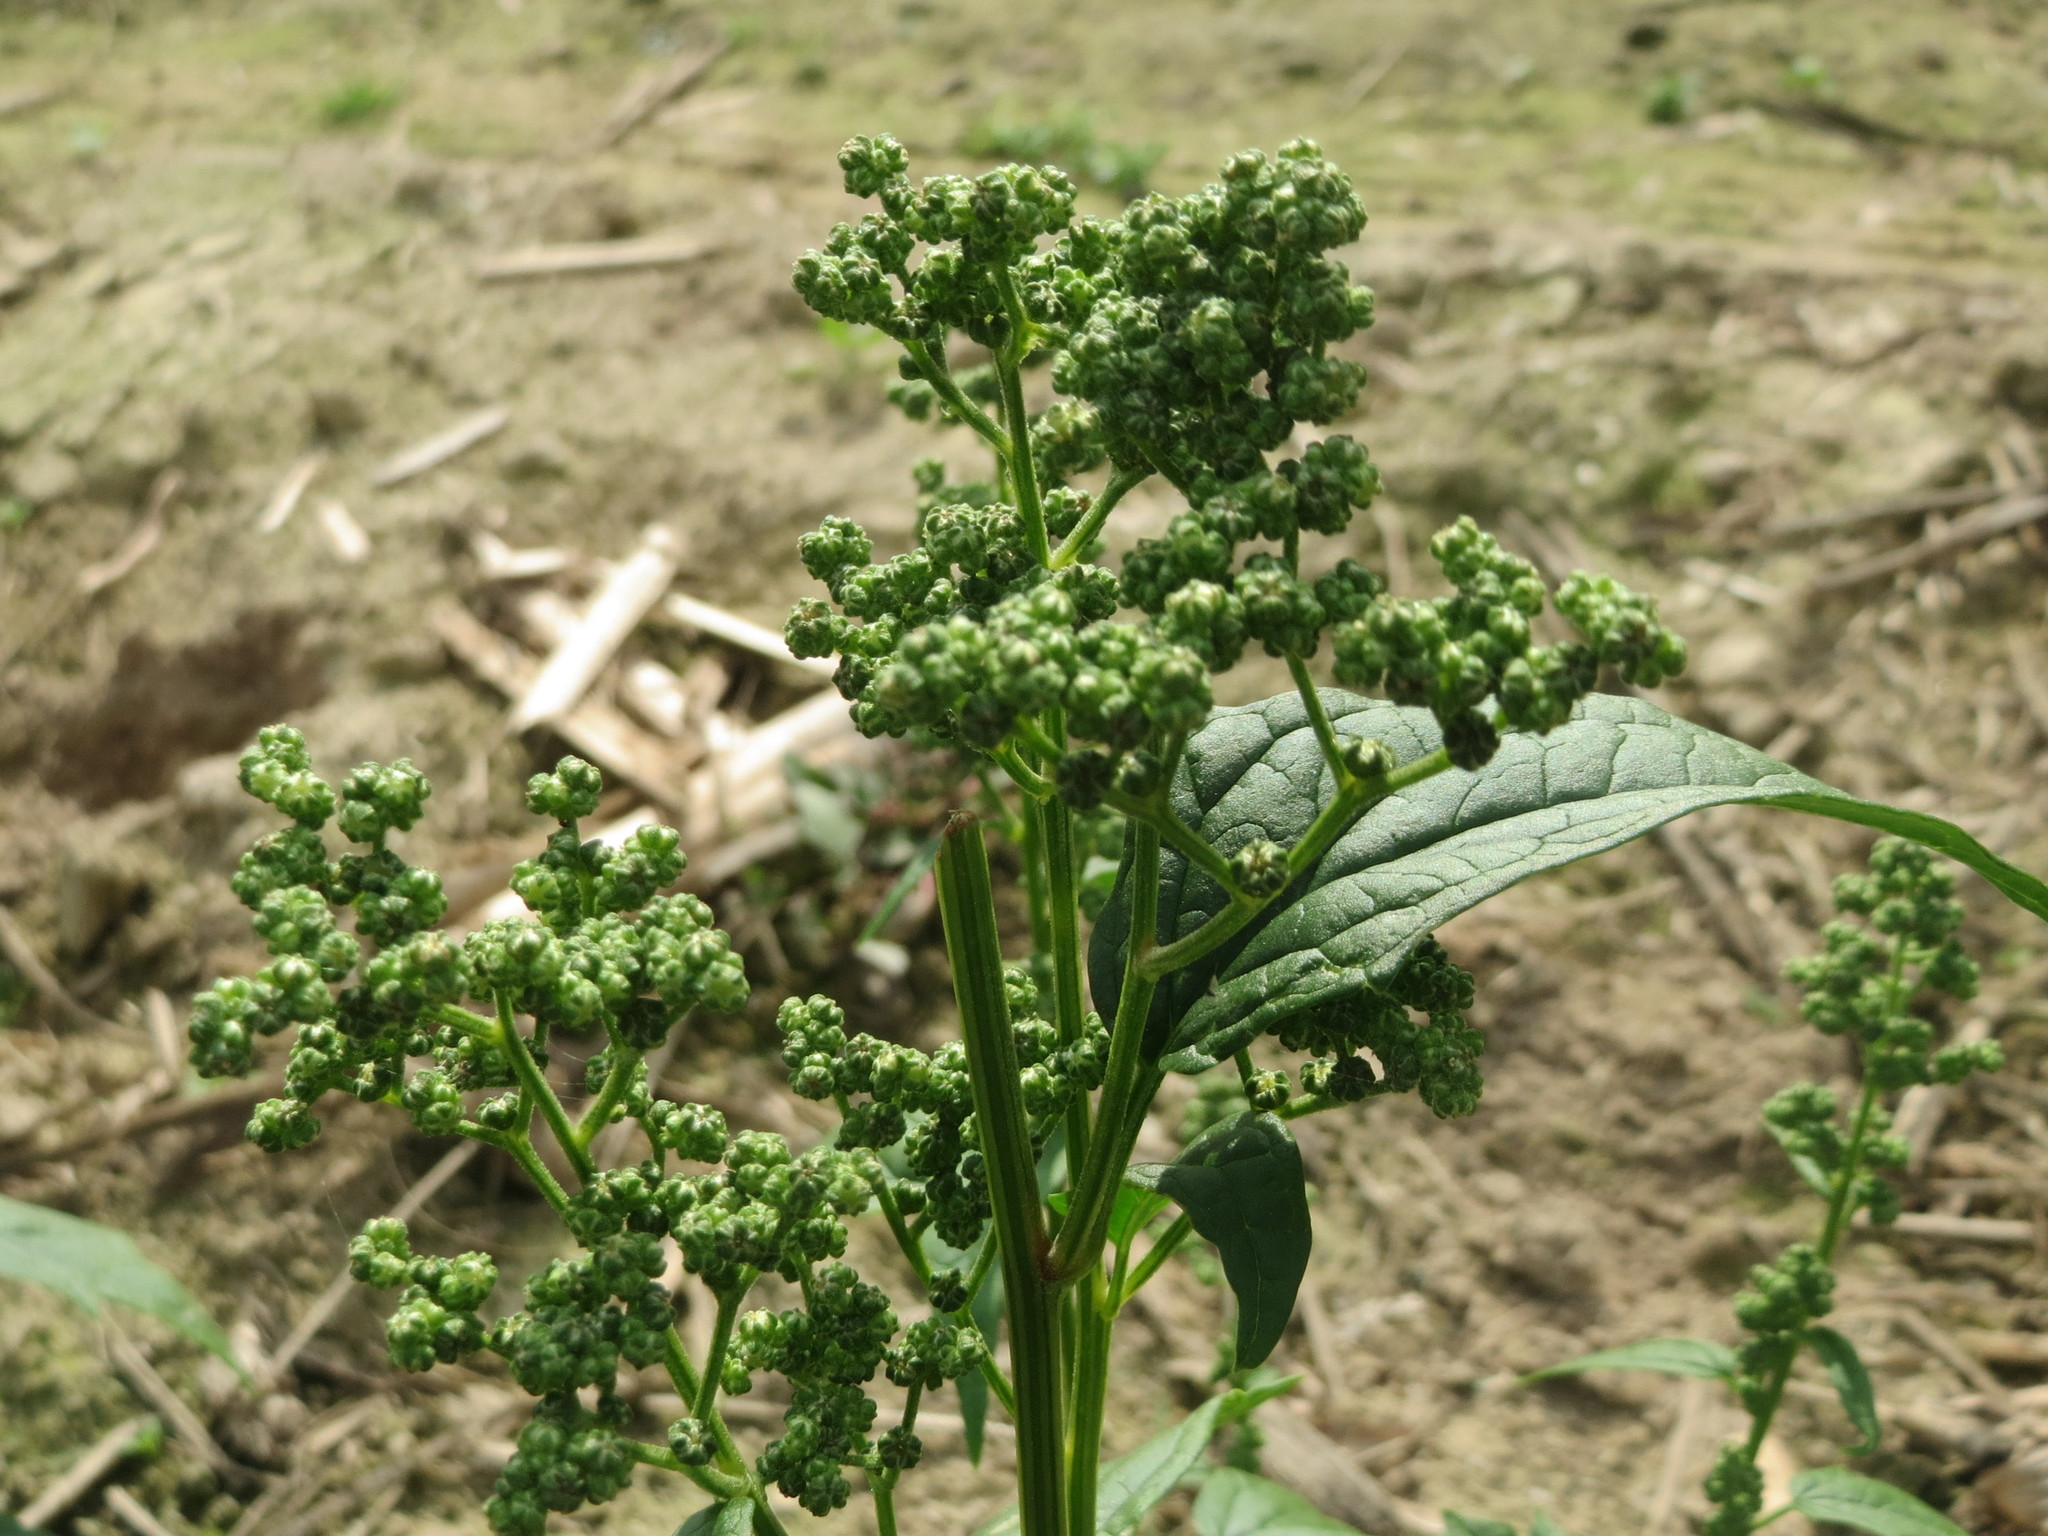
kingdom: Plantae
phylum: Tracheophyta
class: Magnoliopsida
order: Caryophyllales
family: Amaranthaceae
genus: Chenopodiastrum
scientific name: Chenopodiastrum hybridum
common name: Mapleleaf goosefoot
